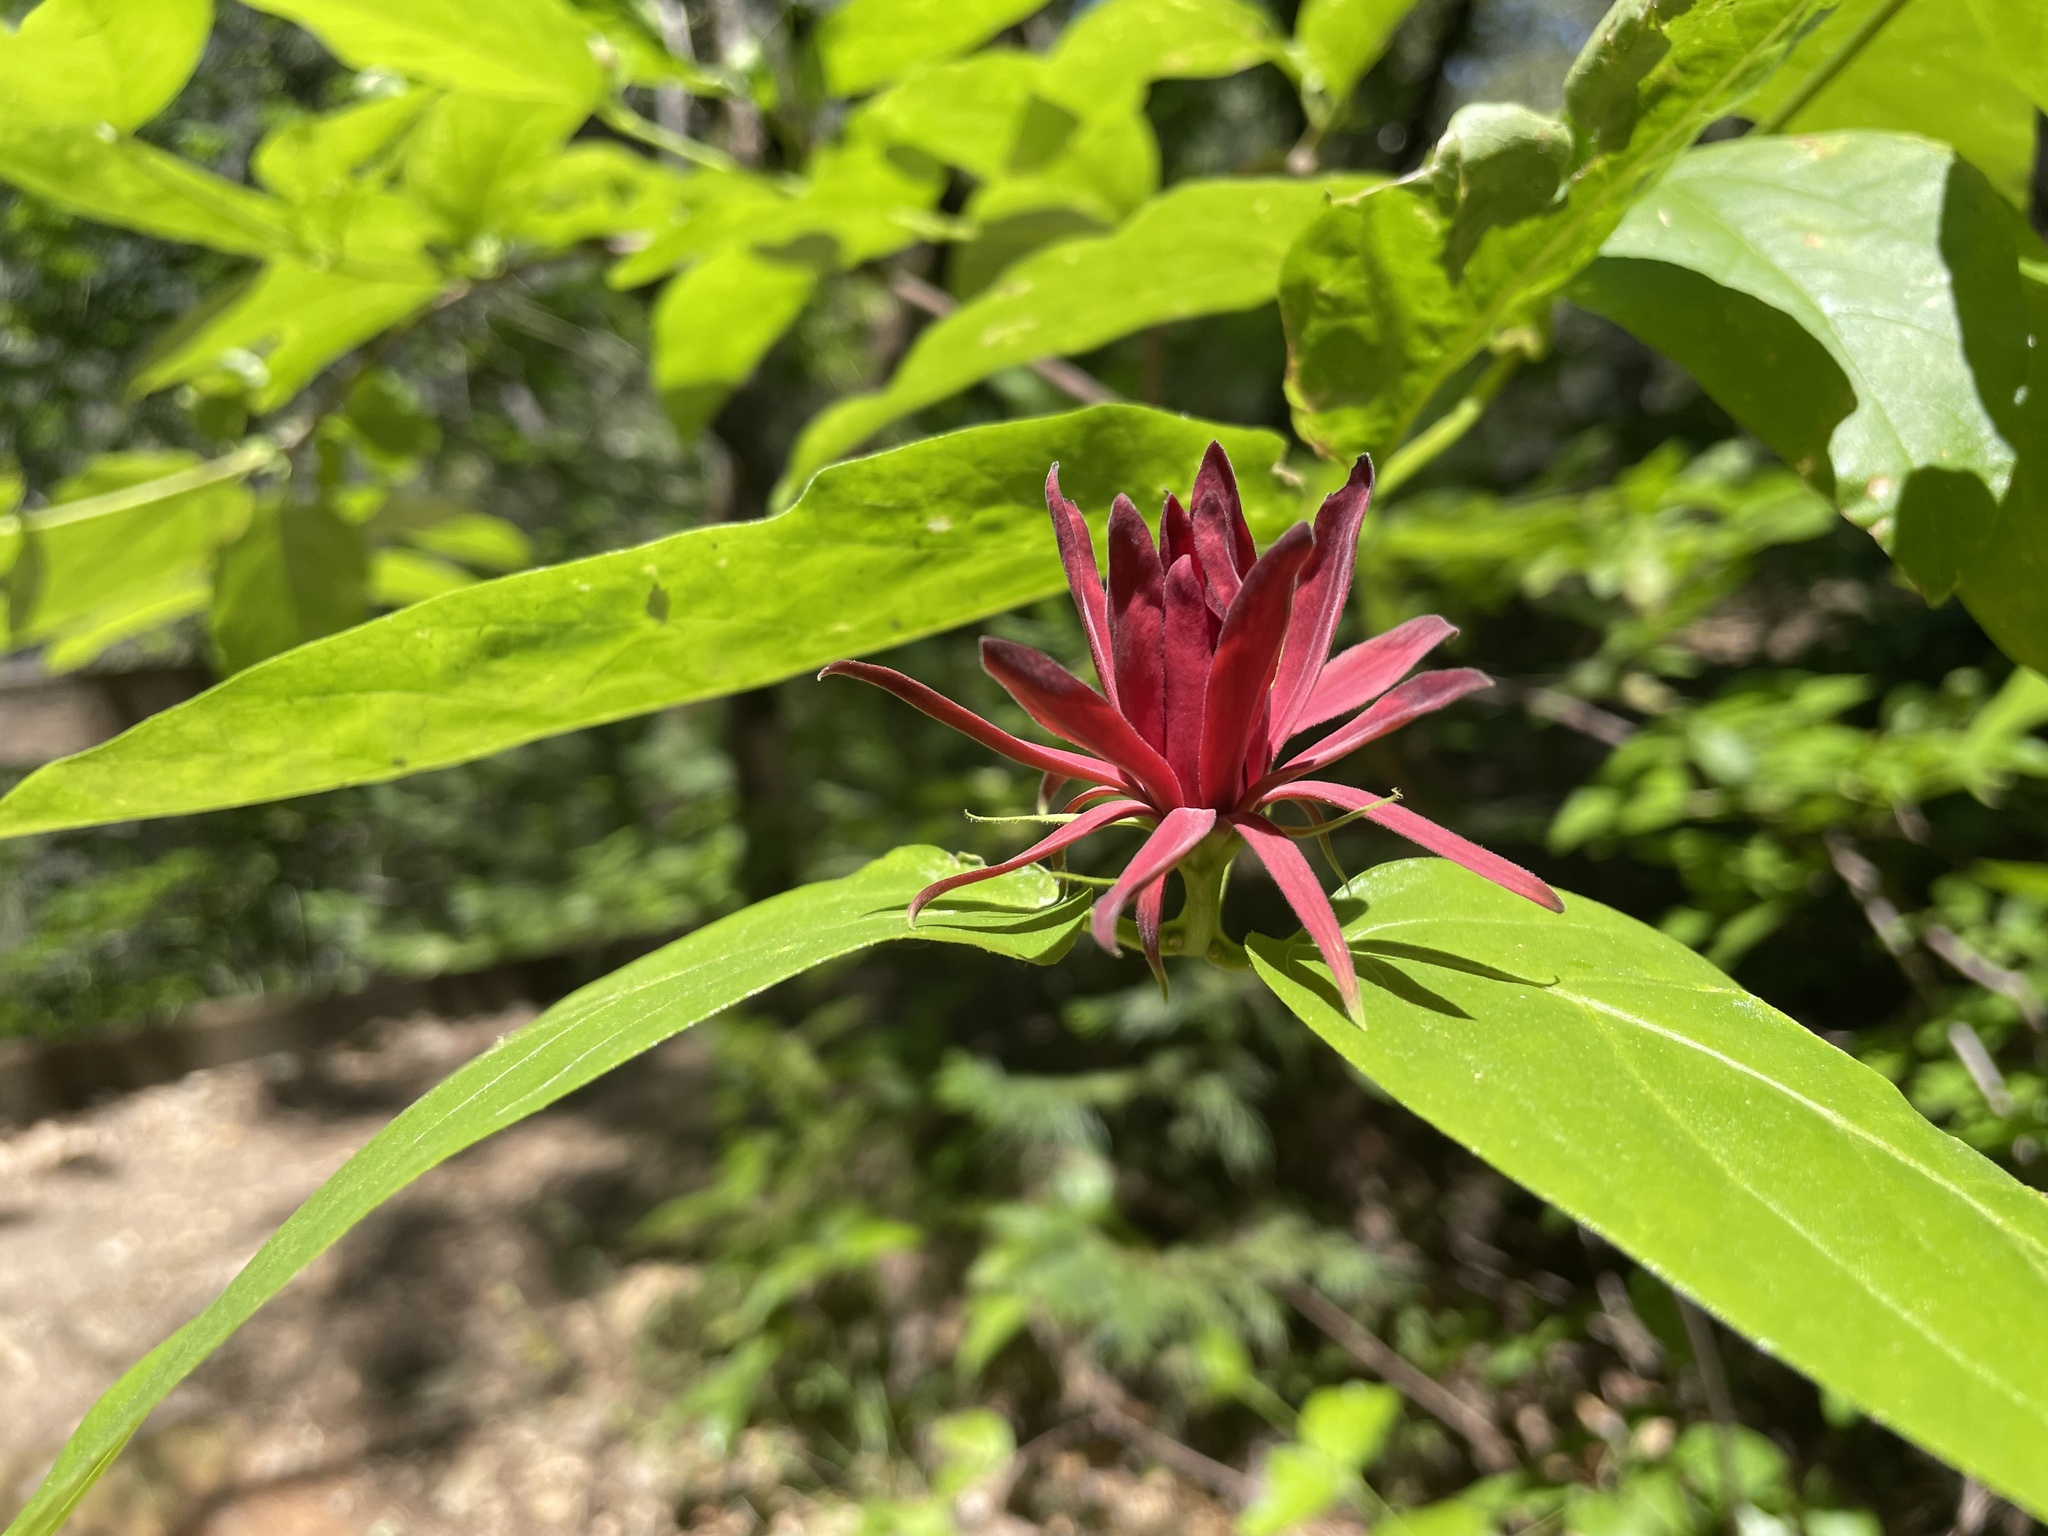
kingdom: Plantae
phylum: Tracheophyta
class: Magnoliopsida
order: Laurales
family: Calycanthaceae
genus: Calycanthus
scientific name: Calycanthus occidentalis
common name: California spicebush
